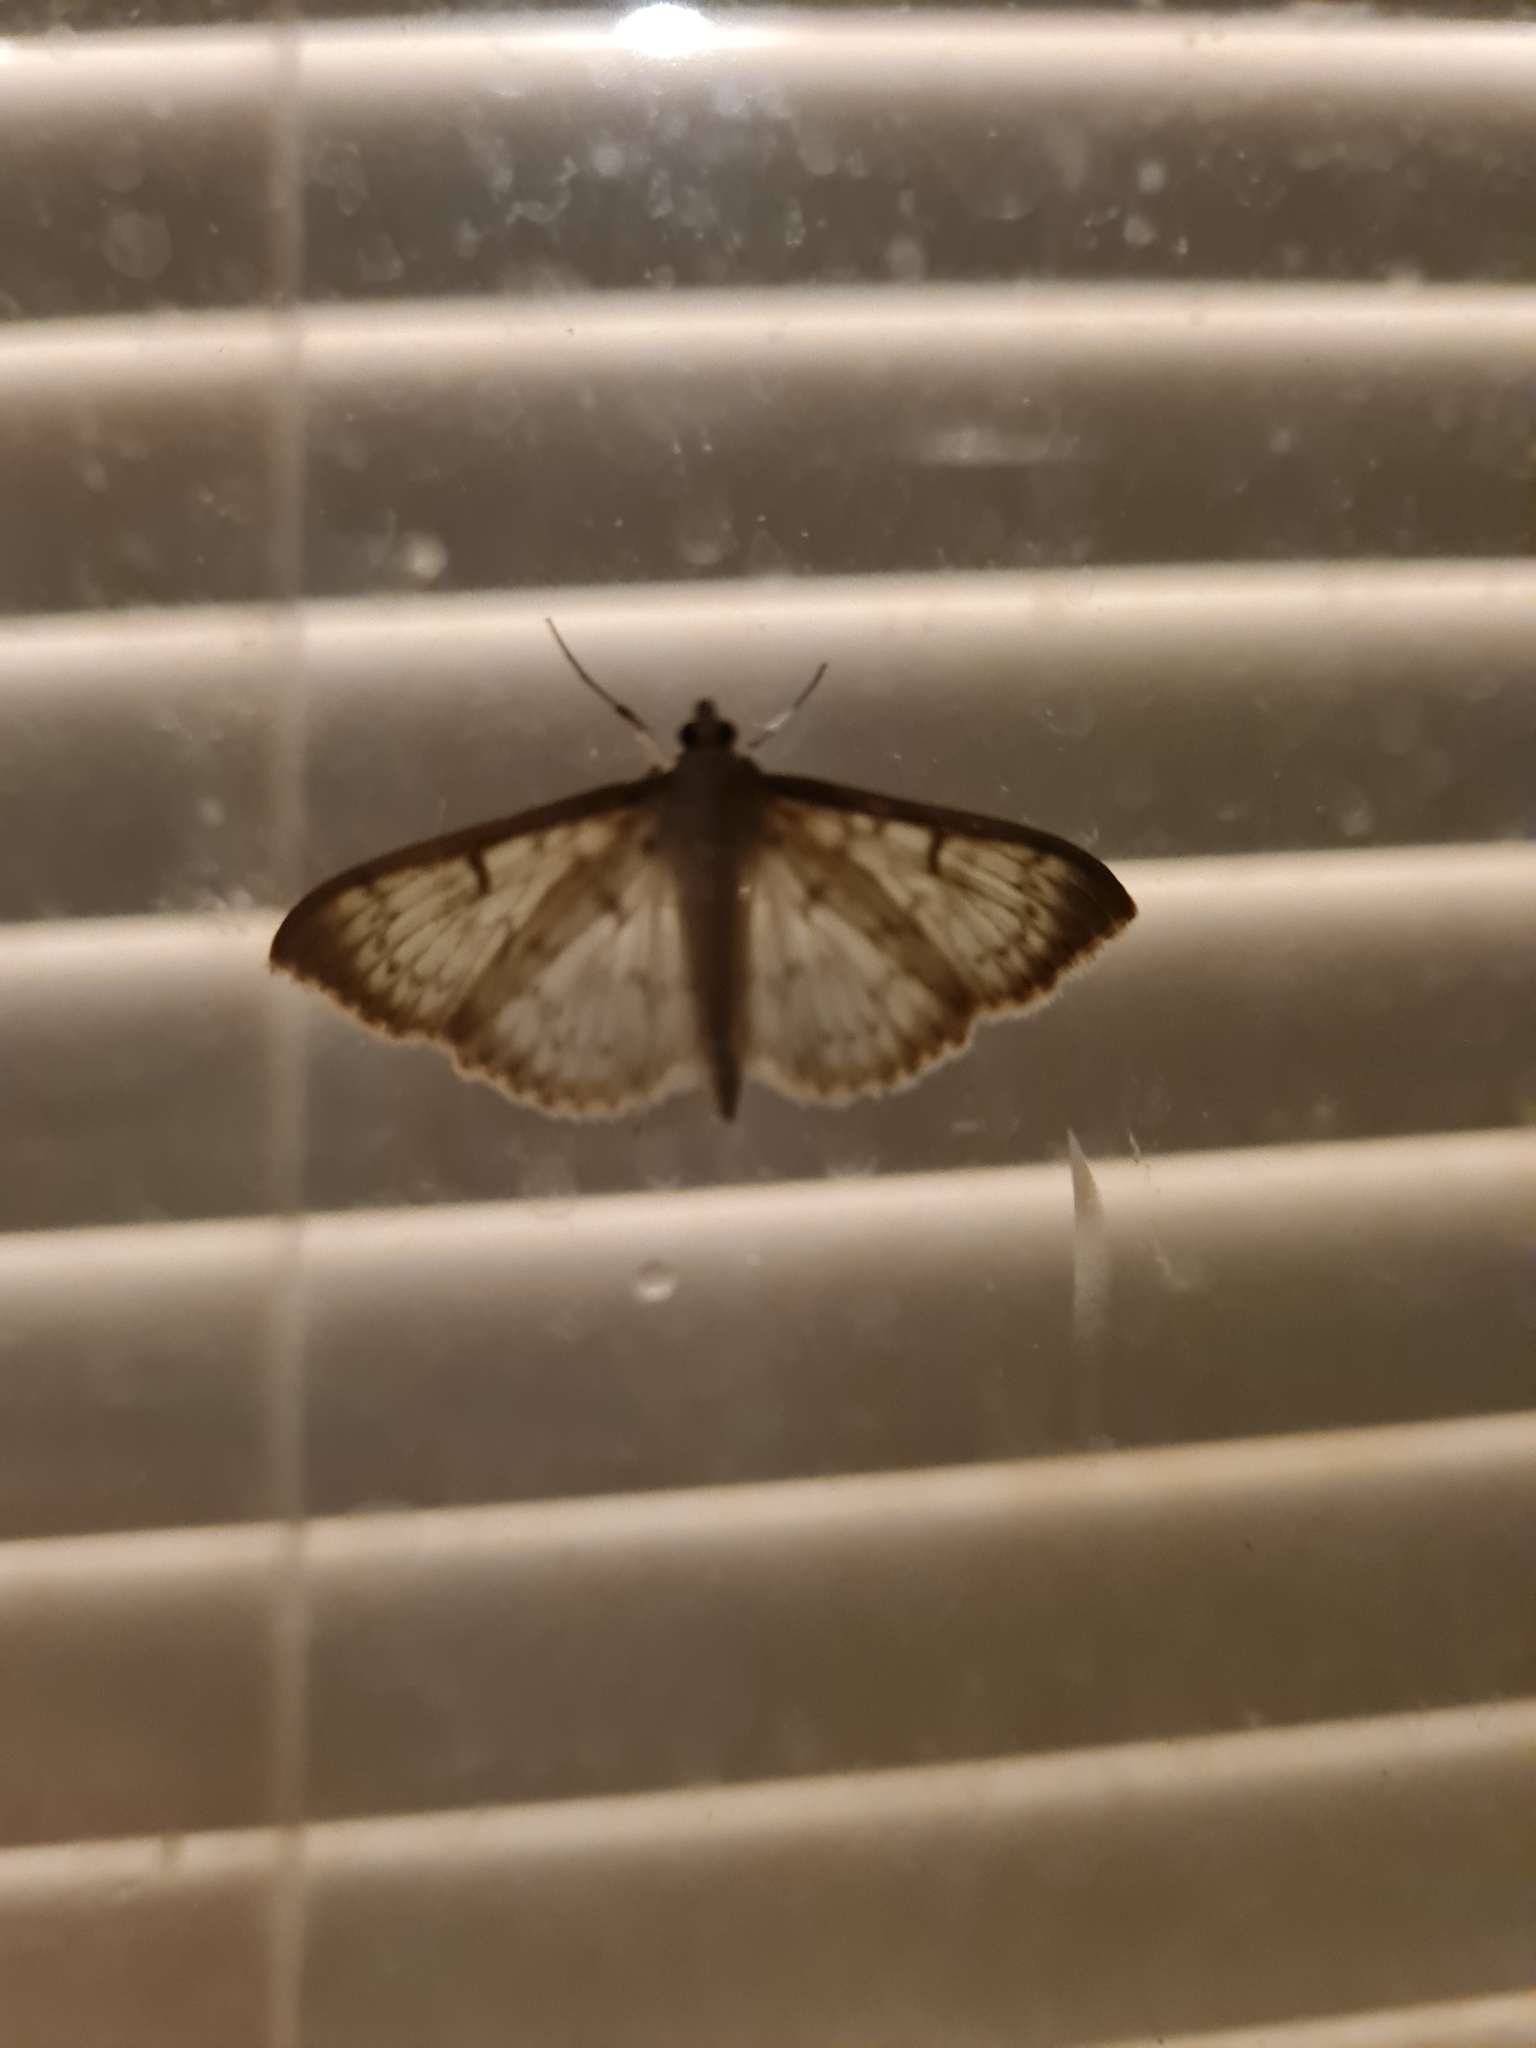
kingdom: Animalia
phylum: Arthropoda
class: Insecta
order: Lepidoptera
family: Crambidae
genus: Patania
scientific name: Patania ruralis
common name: Mother of pearl
